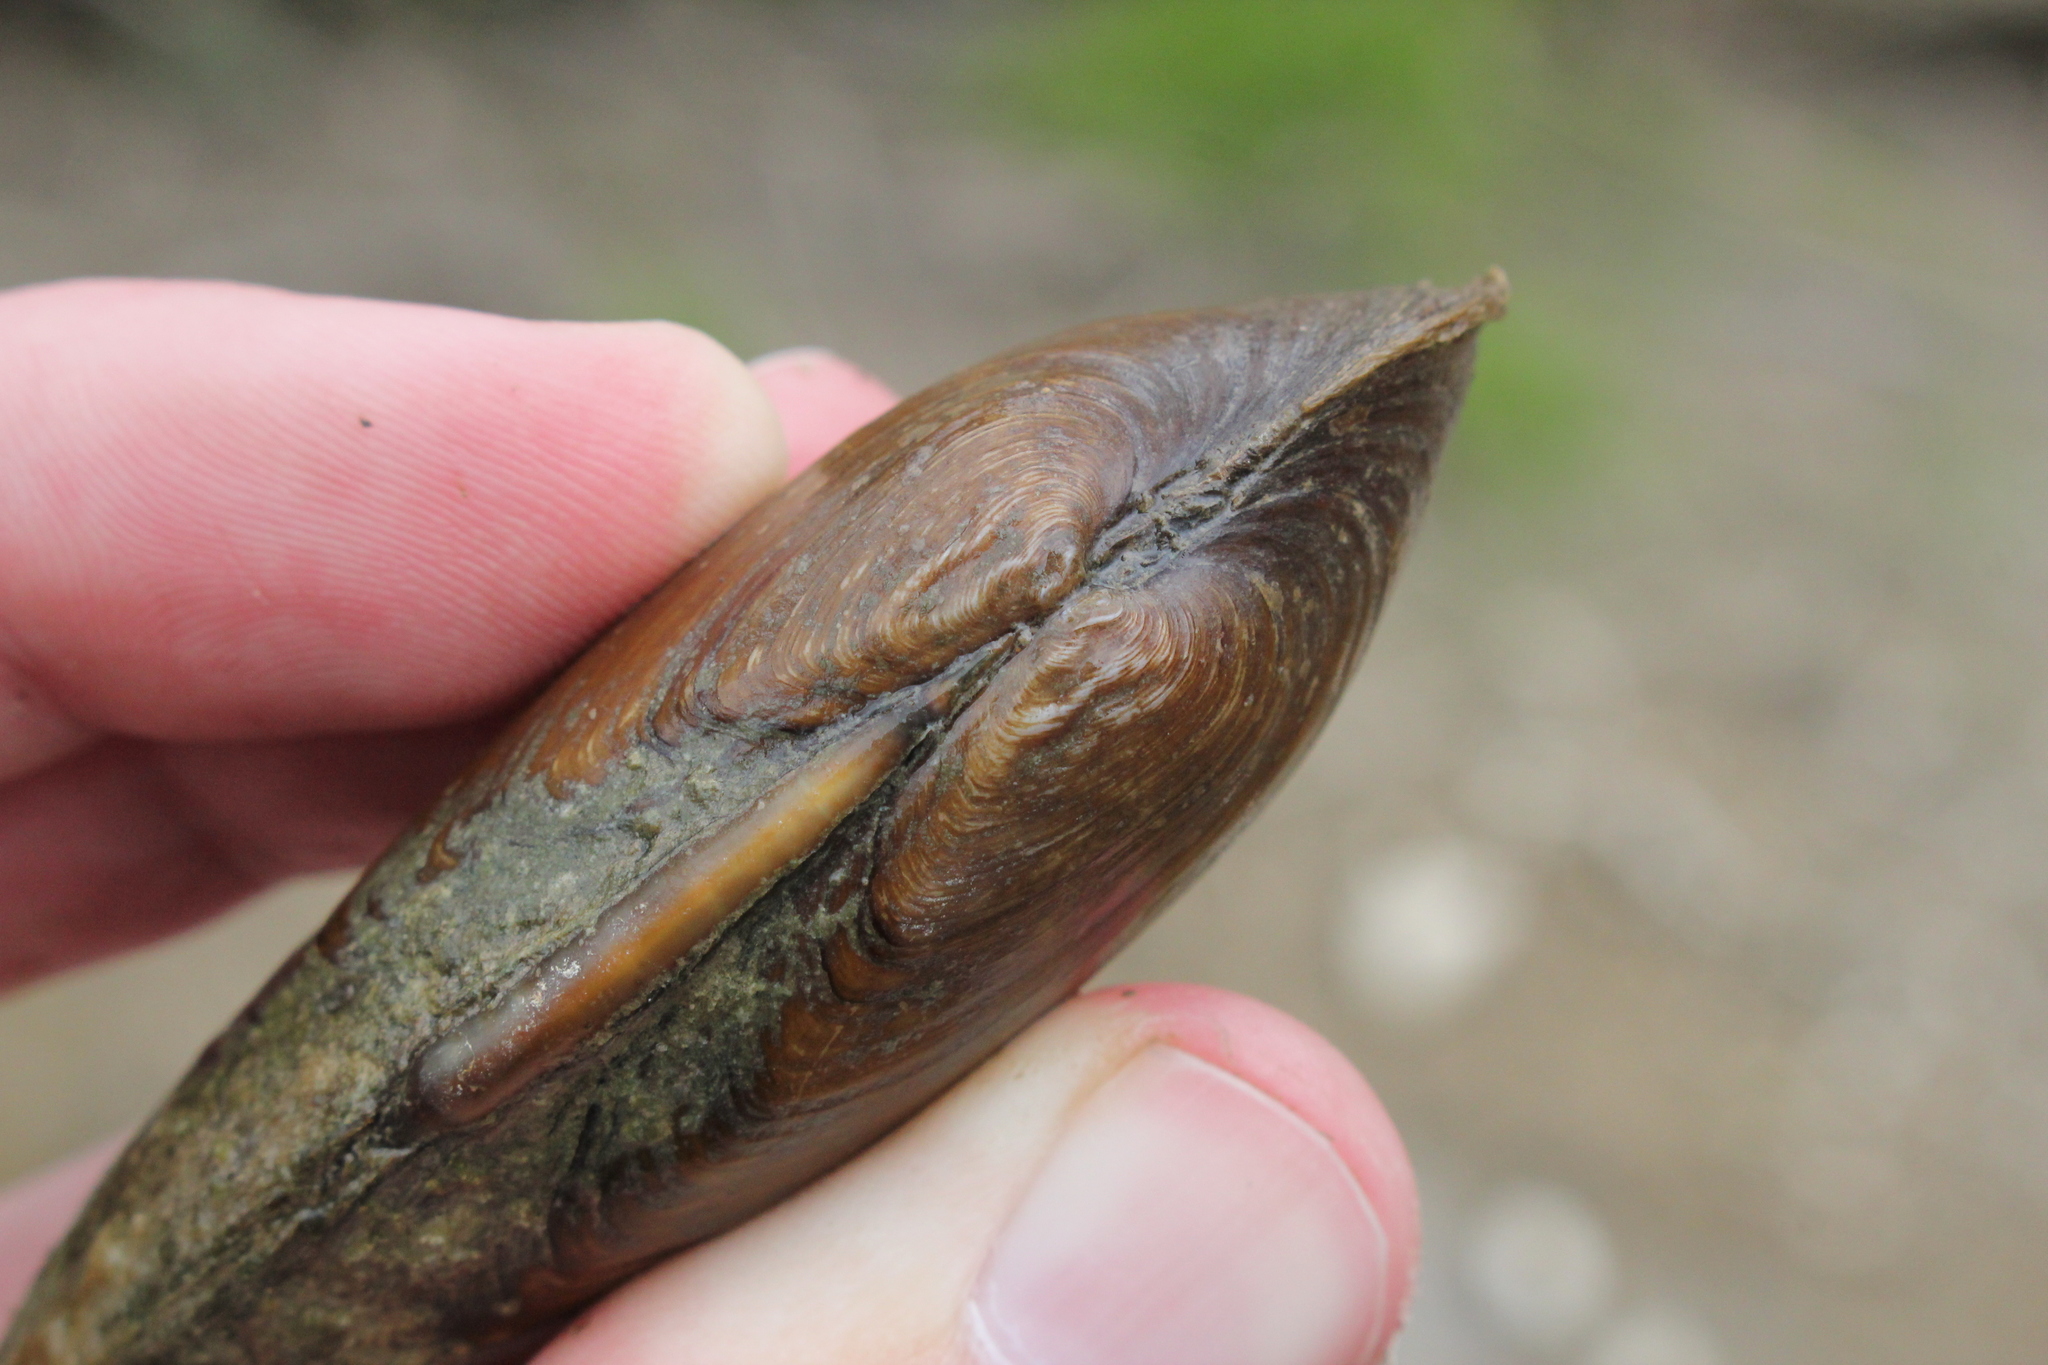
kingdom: Animalia
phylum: Mollusca
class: Bivalvia
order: Unionida
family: Unionidae
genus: Eurynia
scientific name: Eurynia dilatata
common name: Spike
